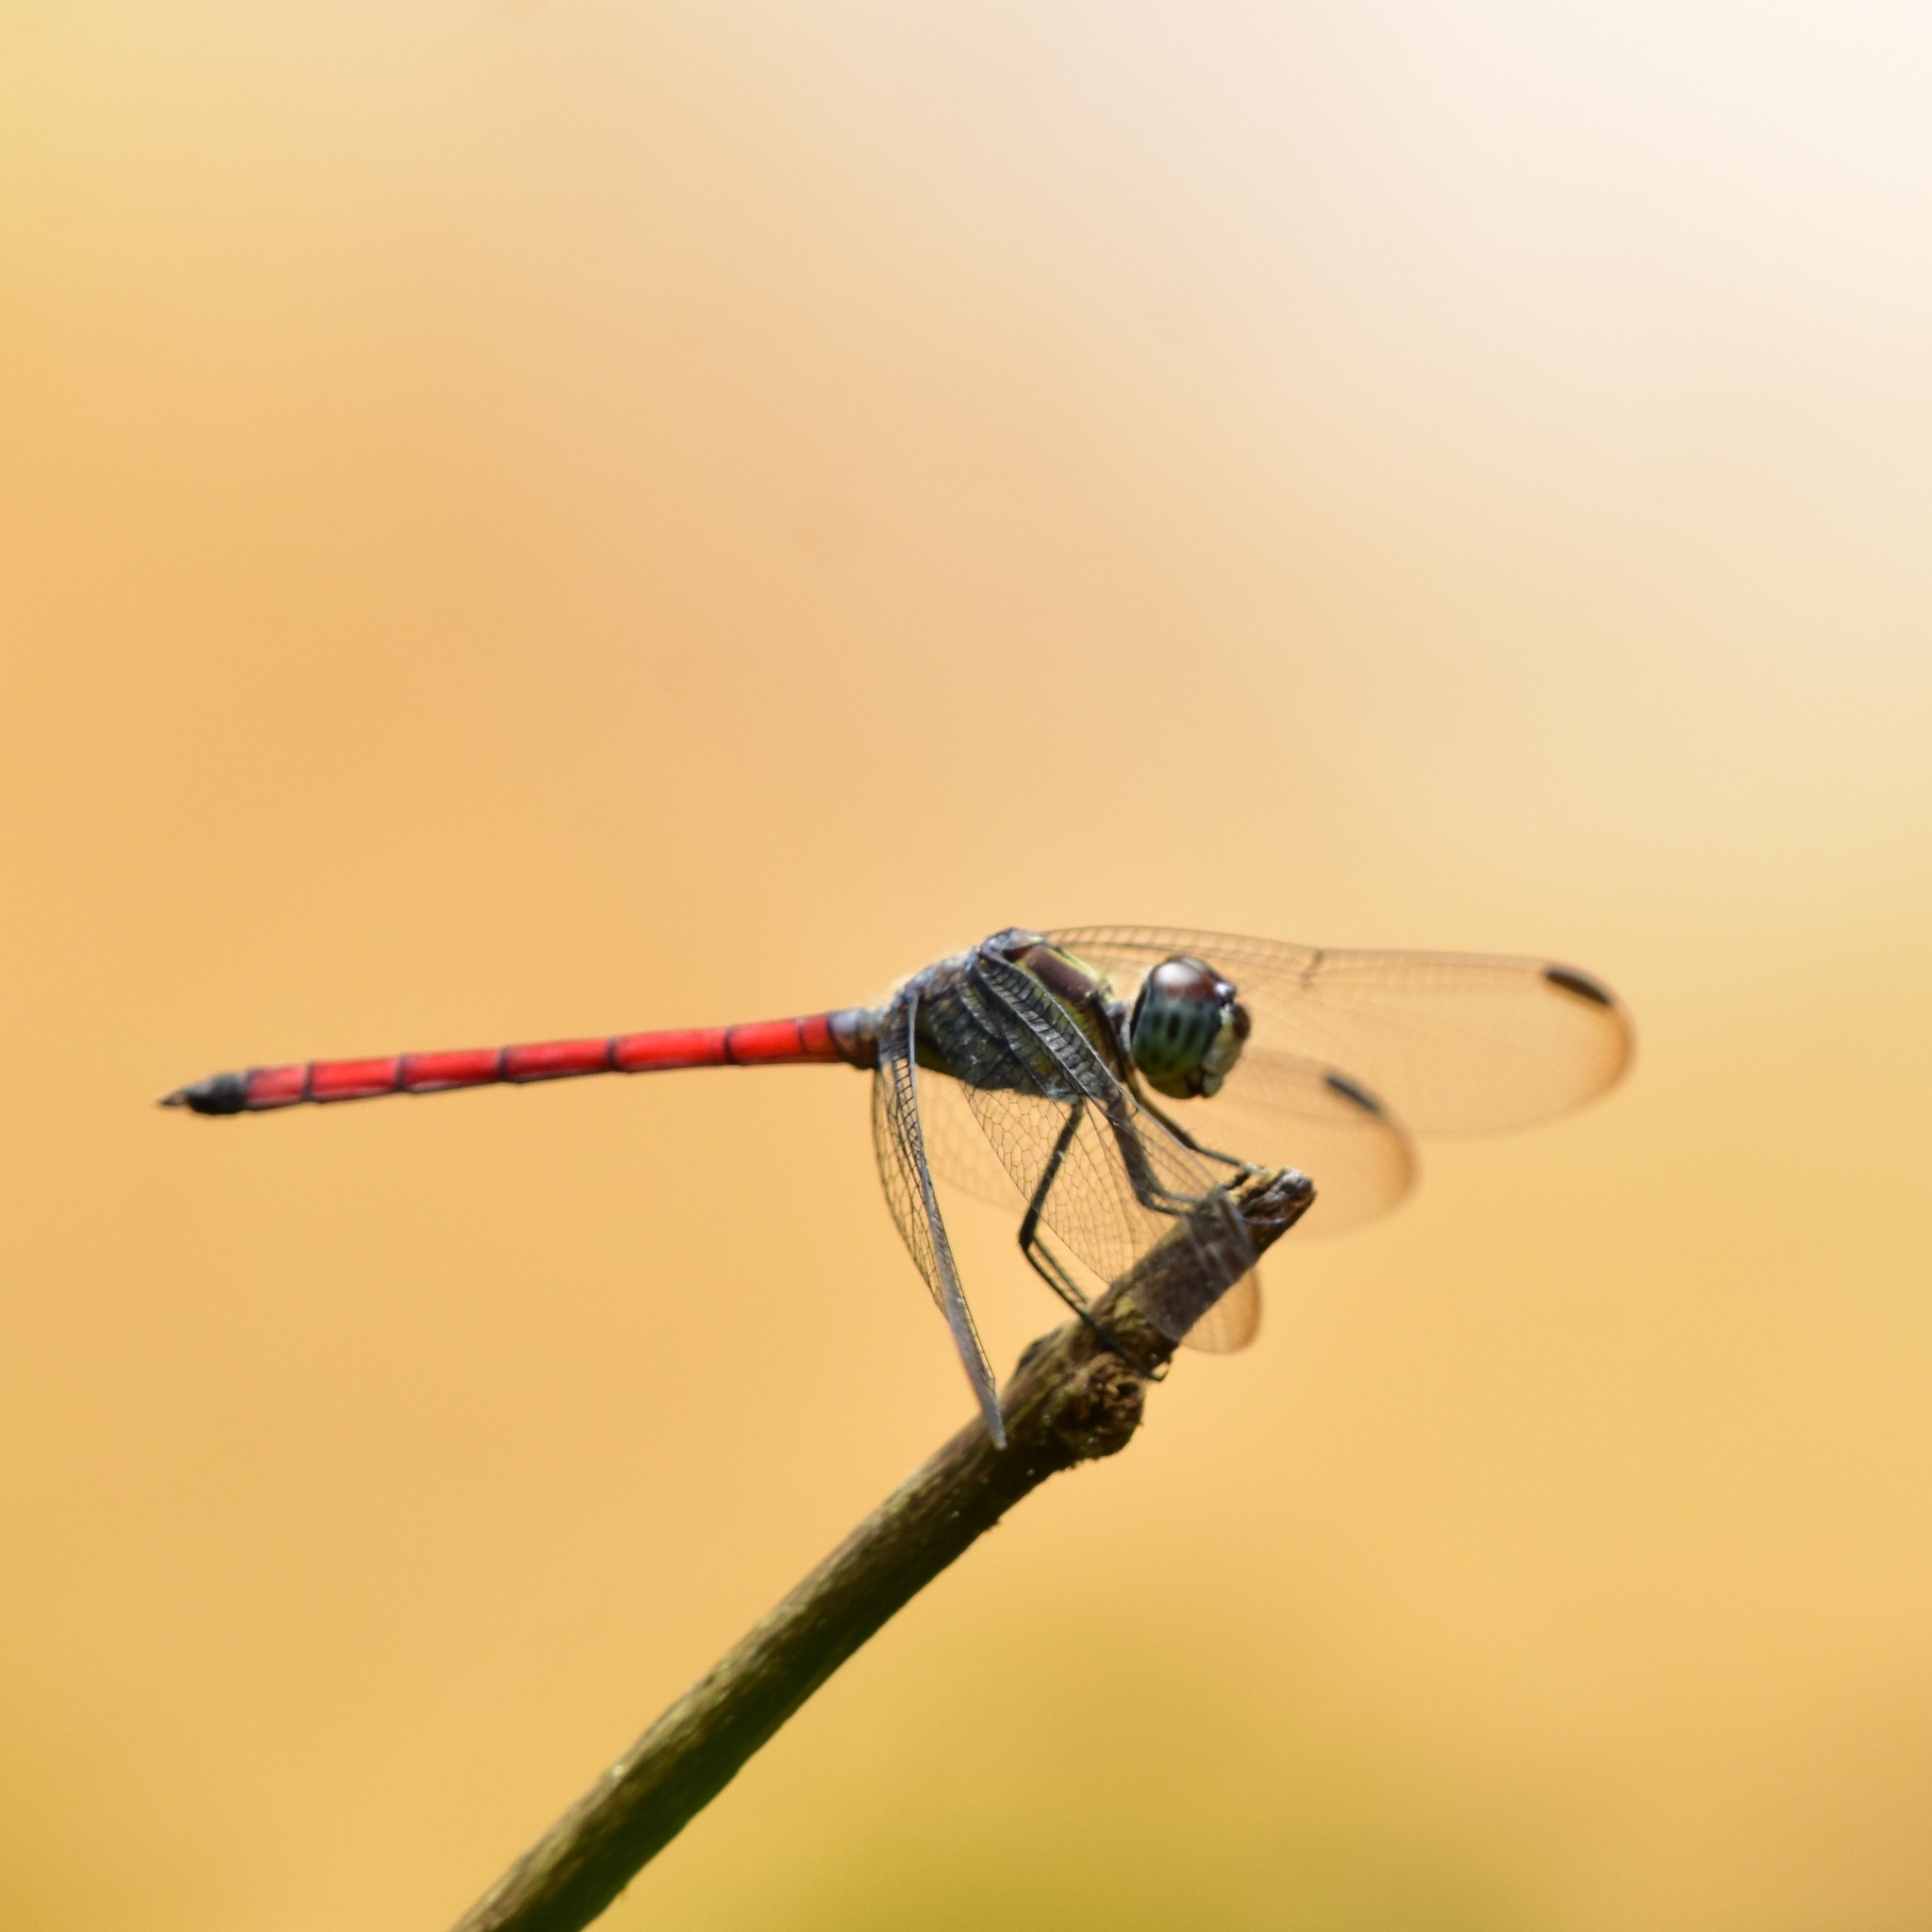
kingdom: Animalia
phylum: Arthropoda
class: Insecta
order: Odonata
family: Libellulidae
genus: Lathrecista
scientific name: Lathrecista asiatica
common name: Scarlet grenadier
